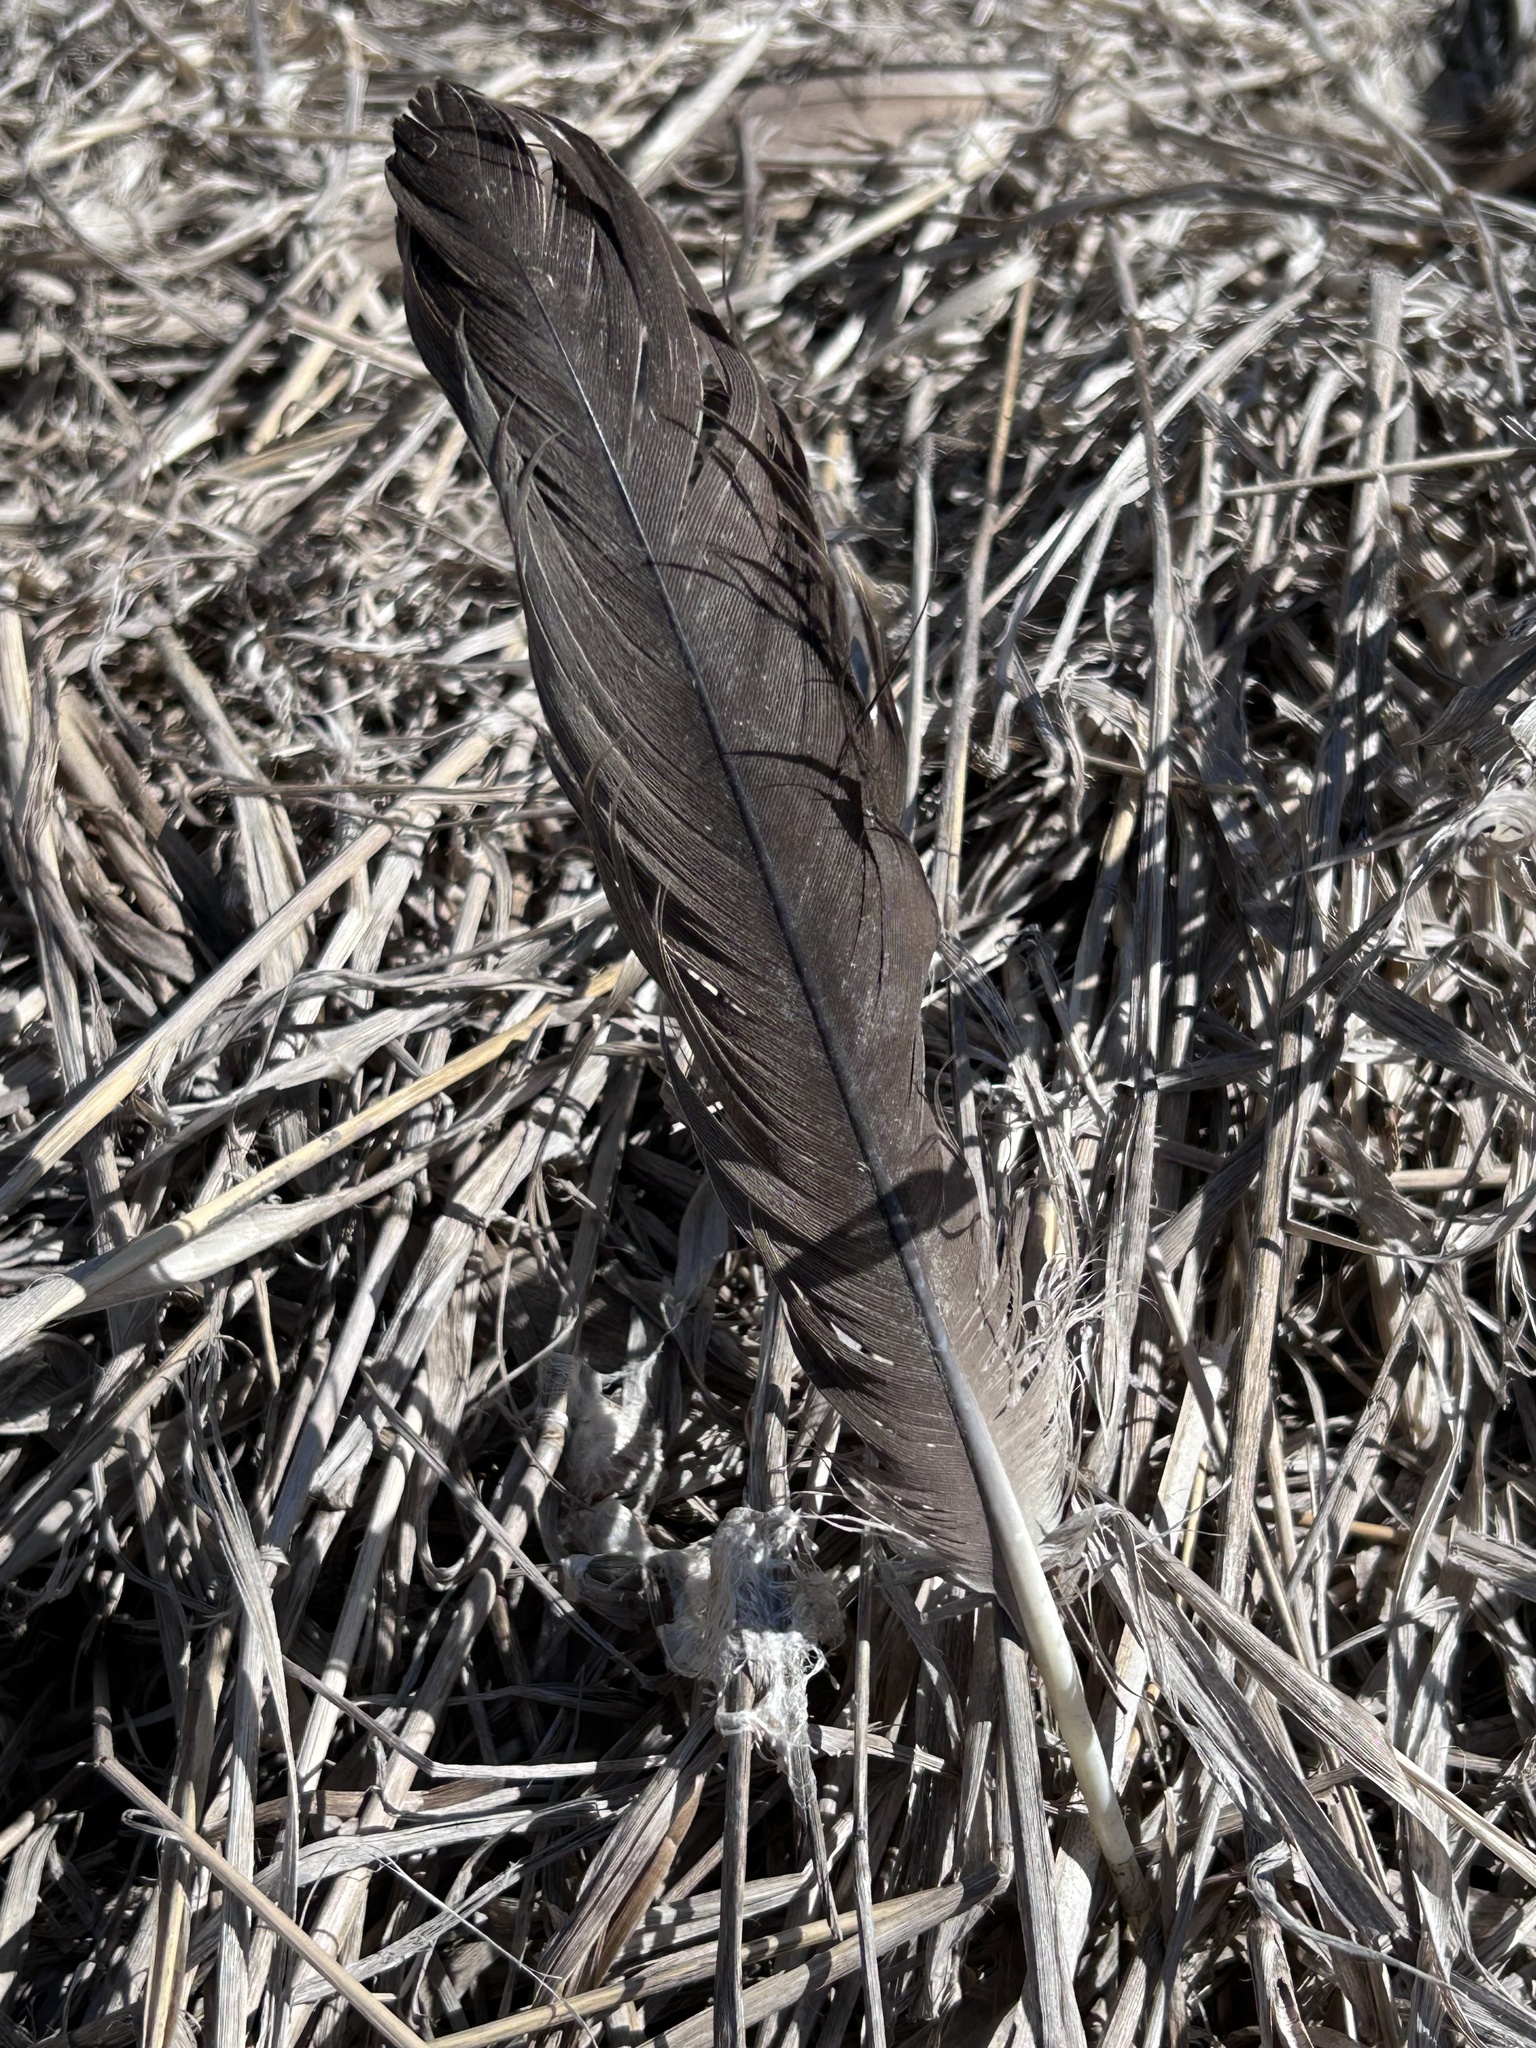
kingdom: Animalia
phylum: Chordata
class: Aves
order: Anseriformes
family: Anatidae
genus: Branta
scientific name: Branta canadensis
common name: Canada goose
